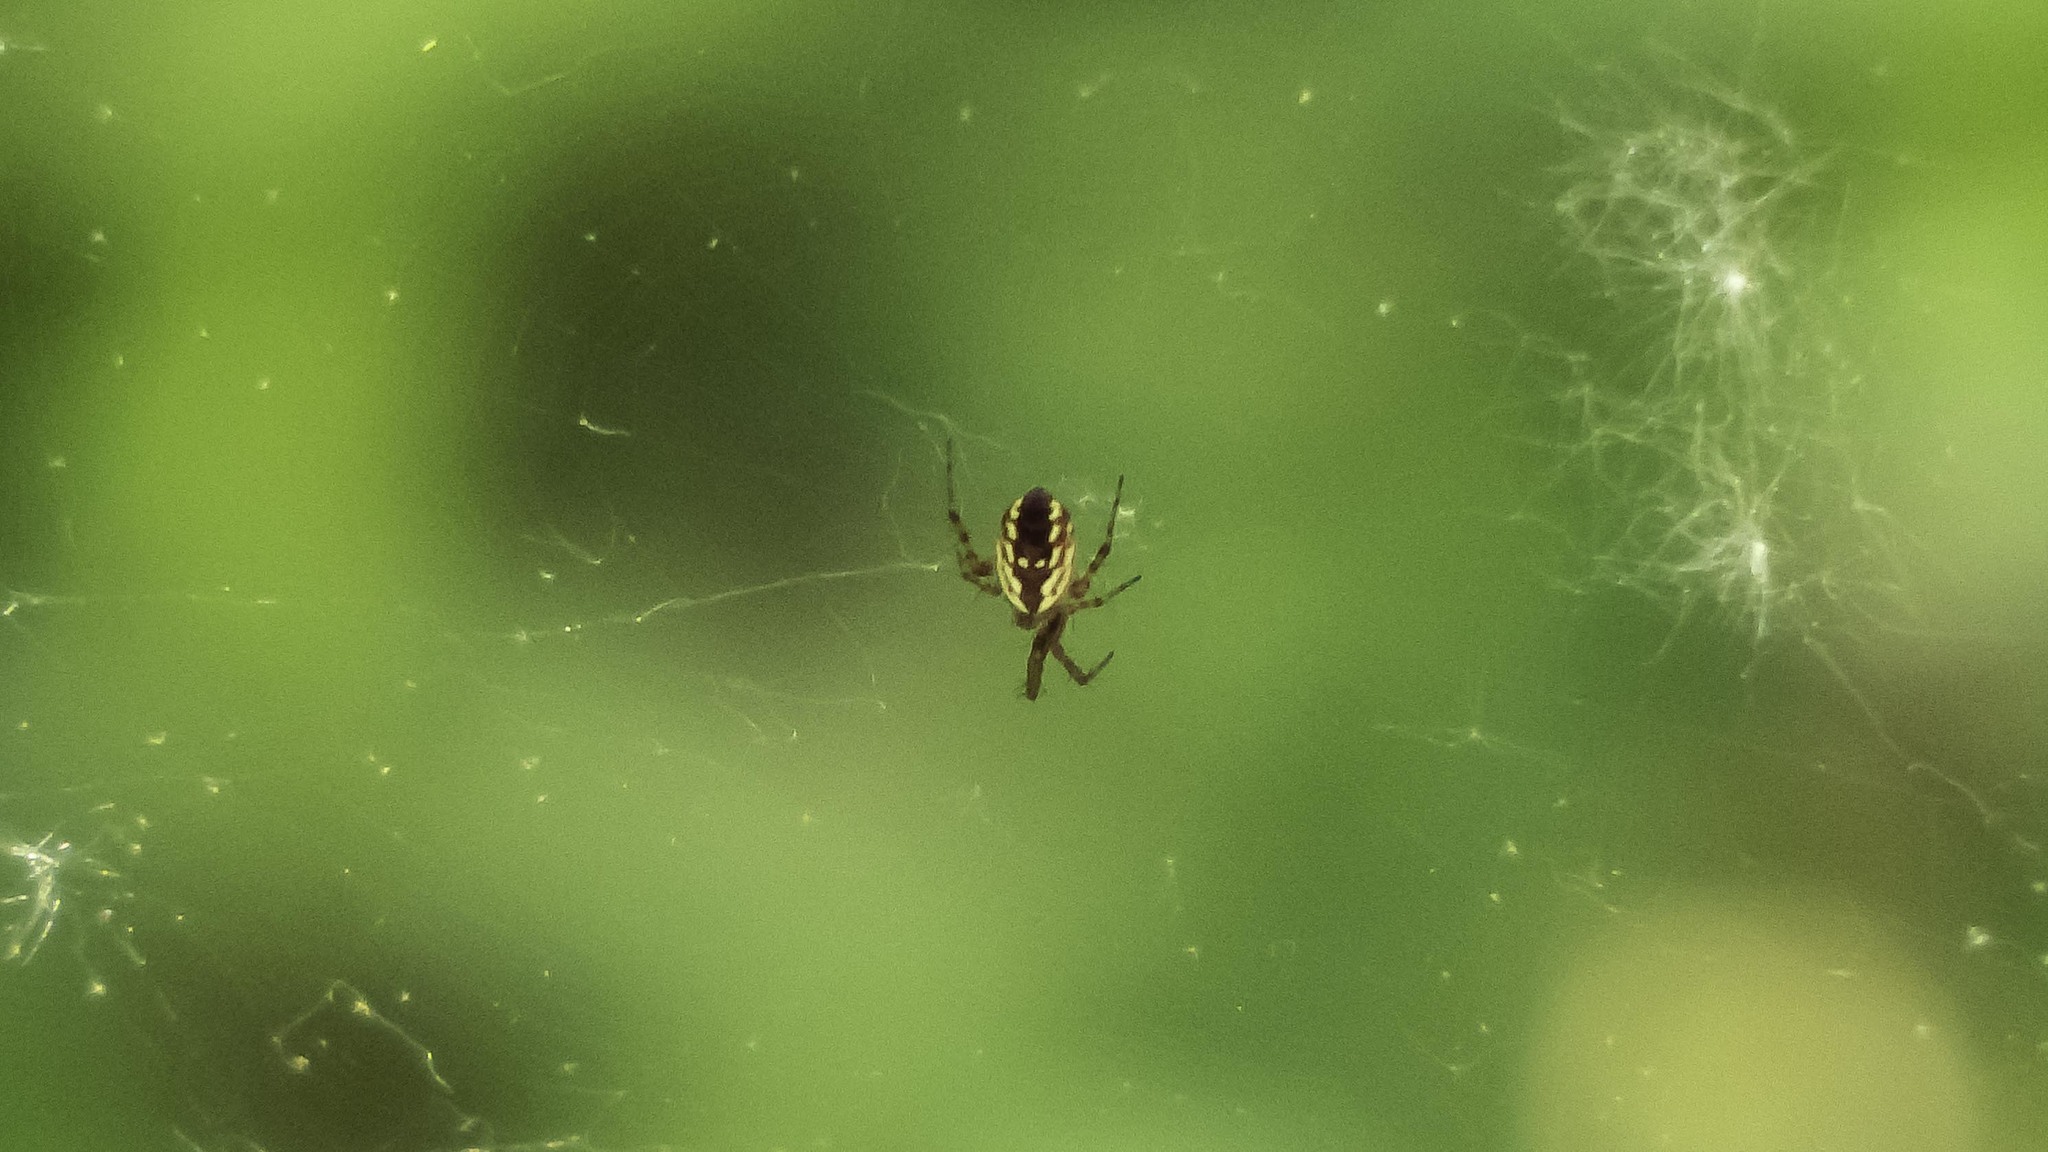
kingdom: Animalia
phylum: Arthropoda
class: Arachnida
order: Araneae
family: Araneidae
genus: Argiope
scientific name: Argiope aurantia
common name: Orb weavers
